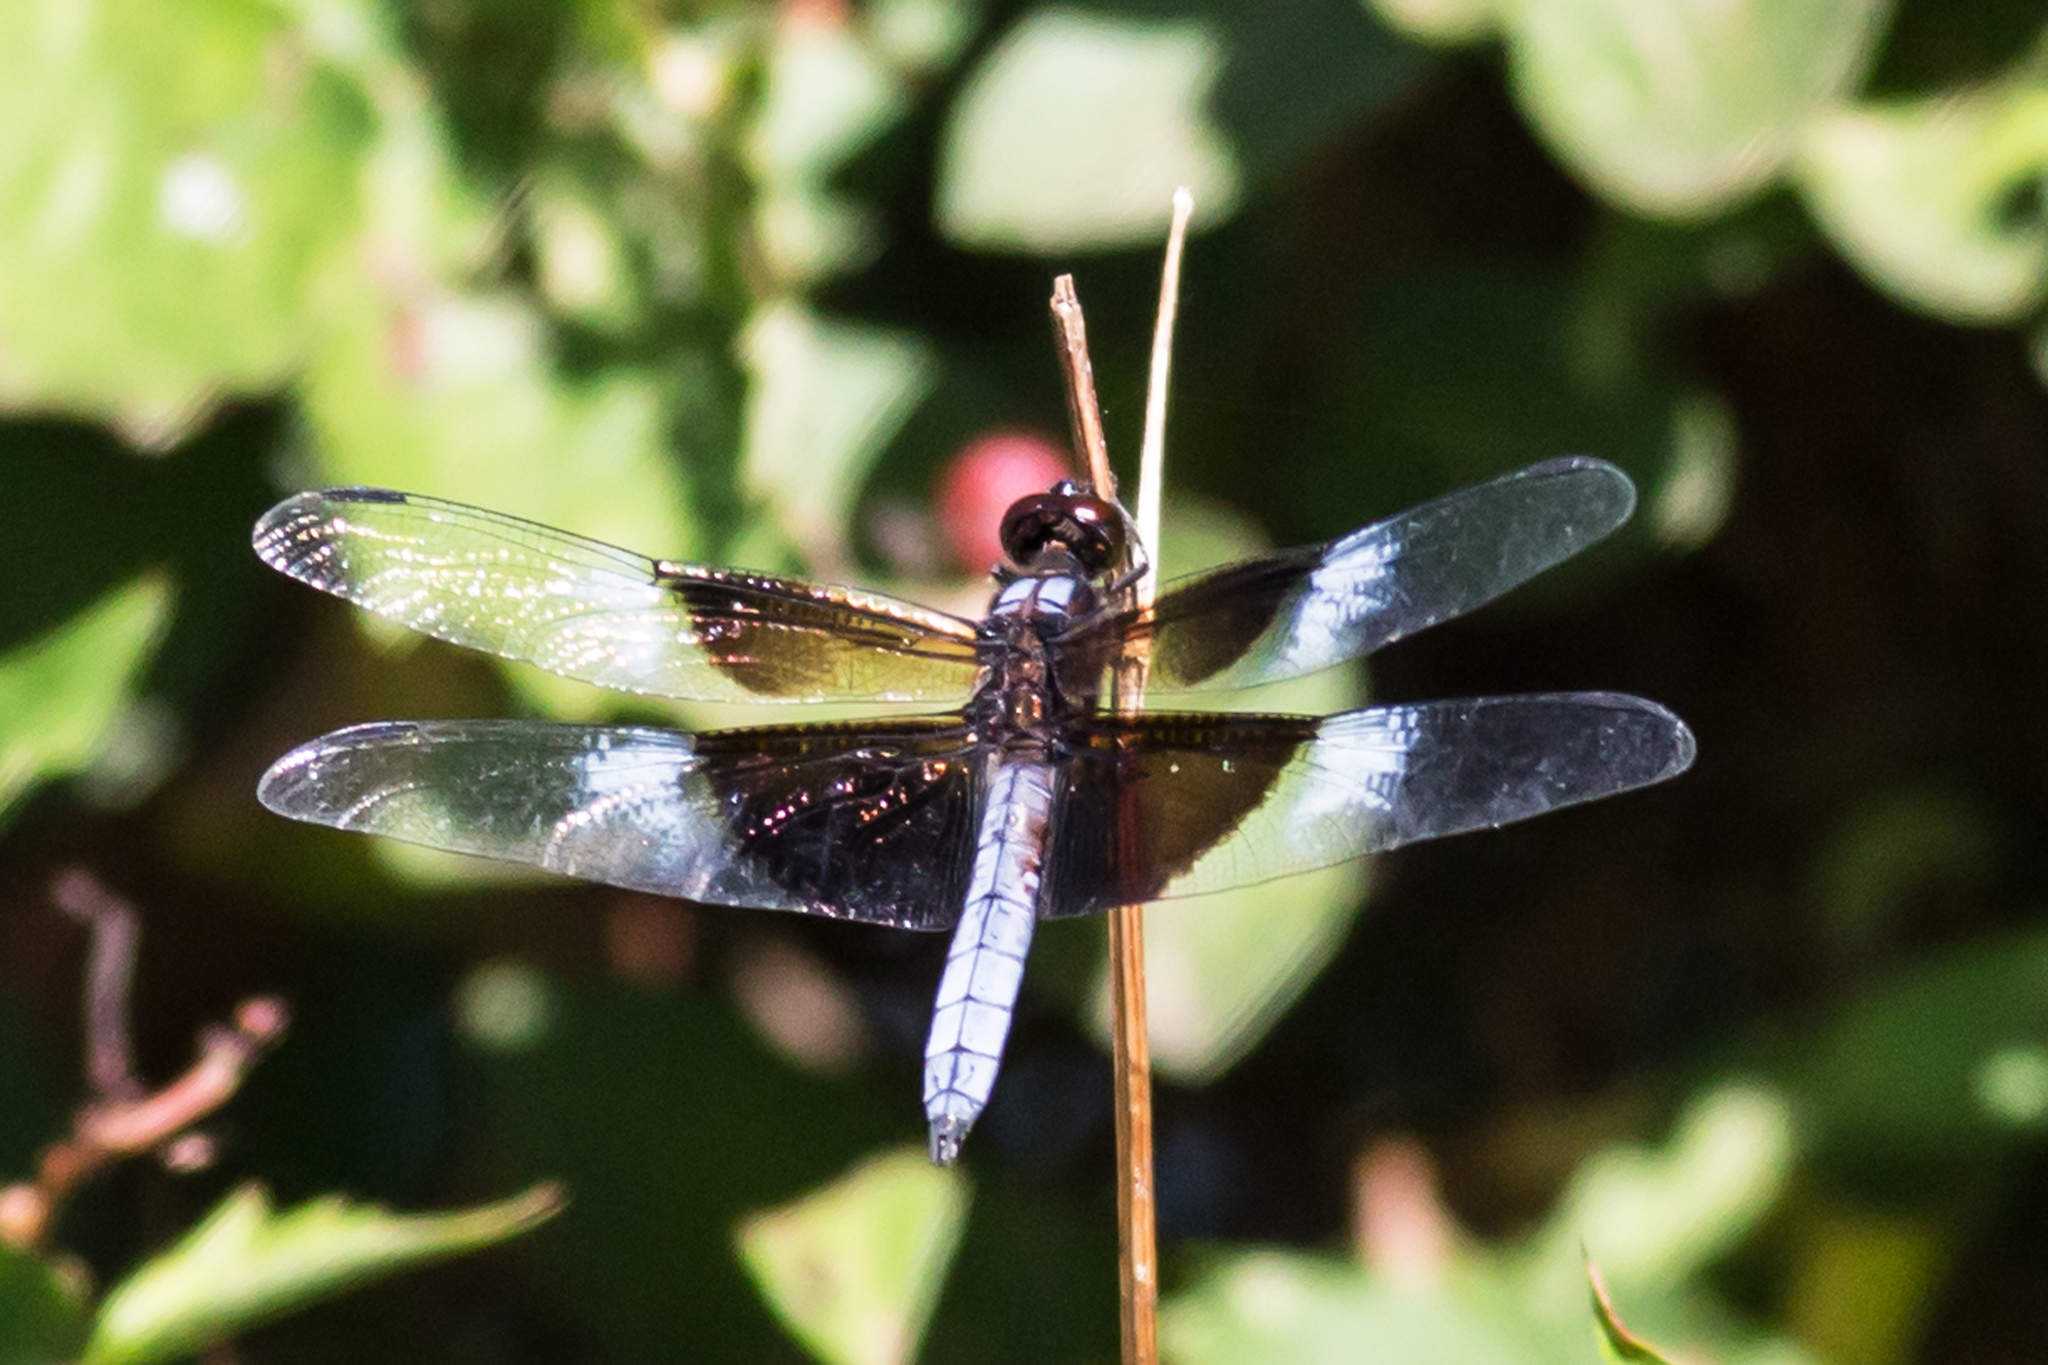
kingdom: Animalia
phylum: Arthropoda
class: Insecta
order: Odonata
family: Libellulidae
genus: Libellula
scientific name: Libellula luctuosa
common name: Widow skimmer
